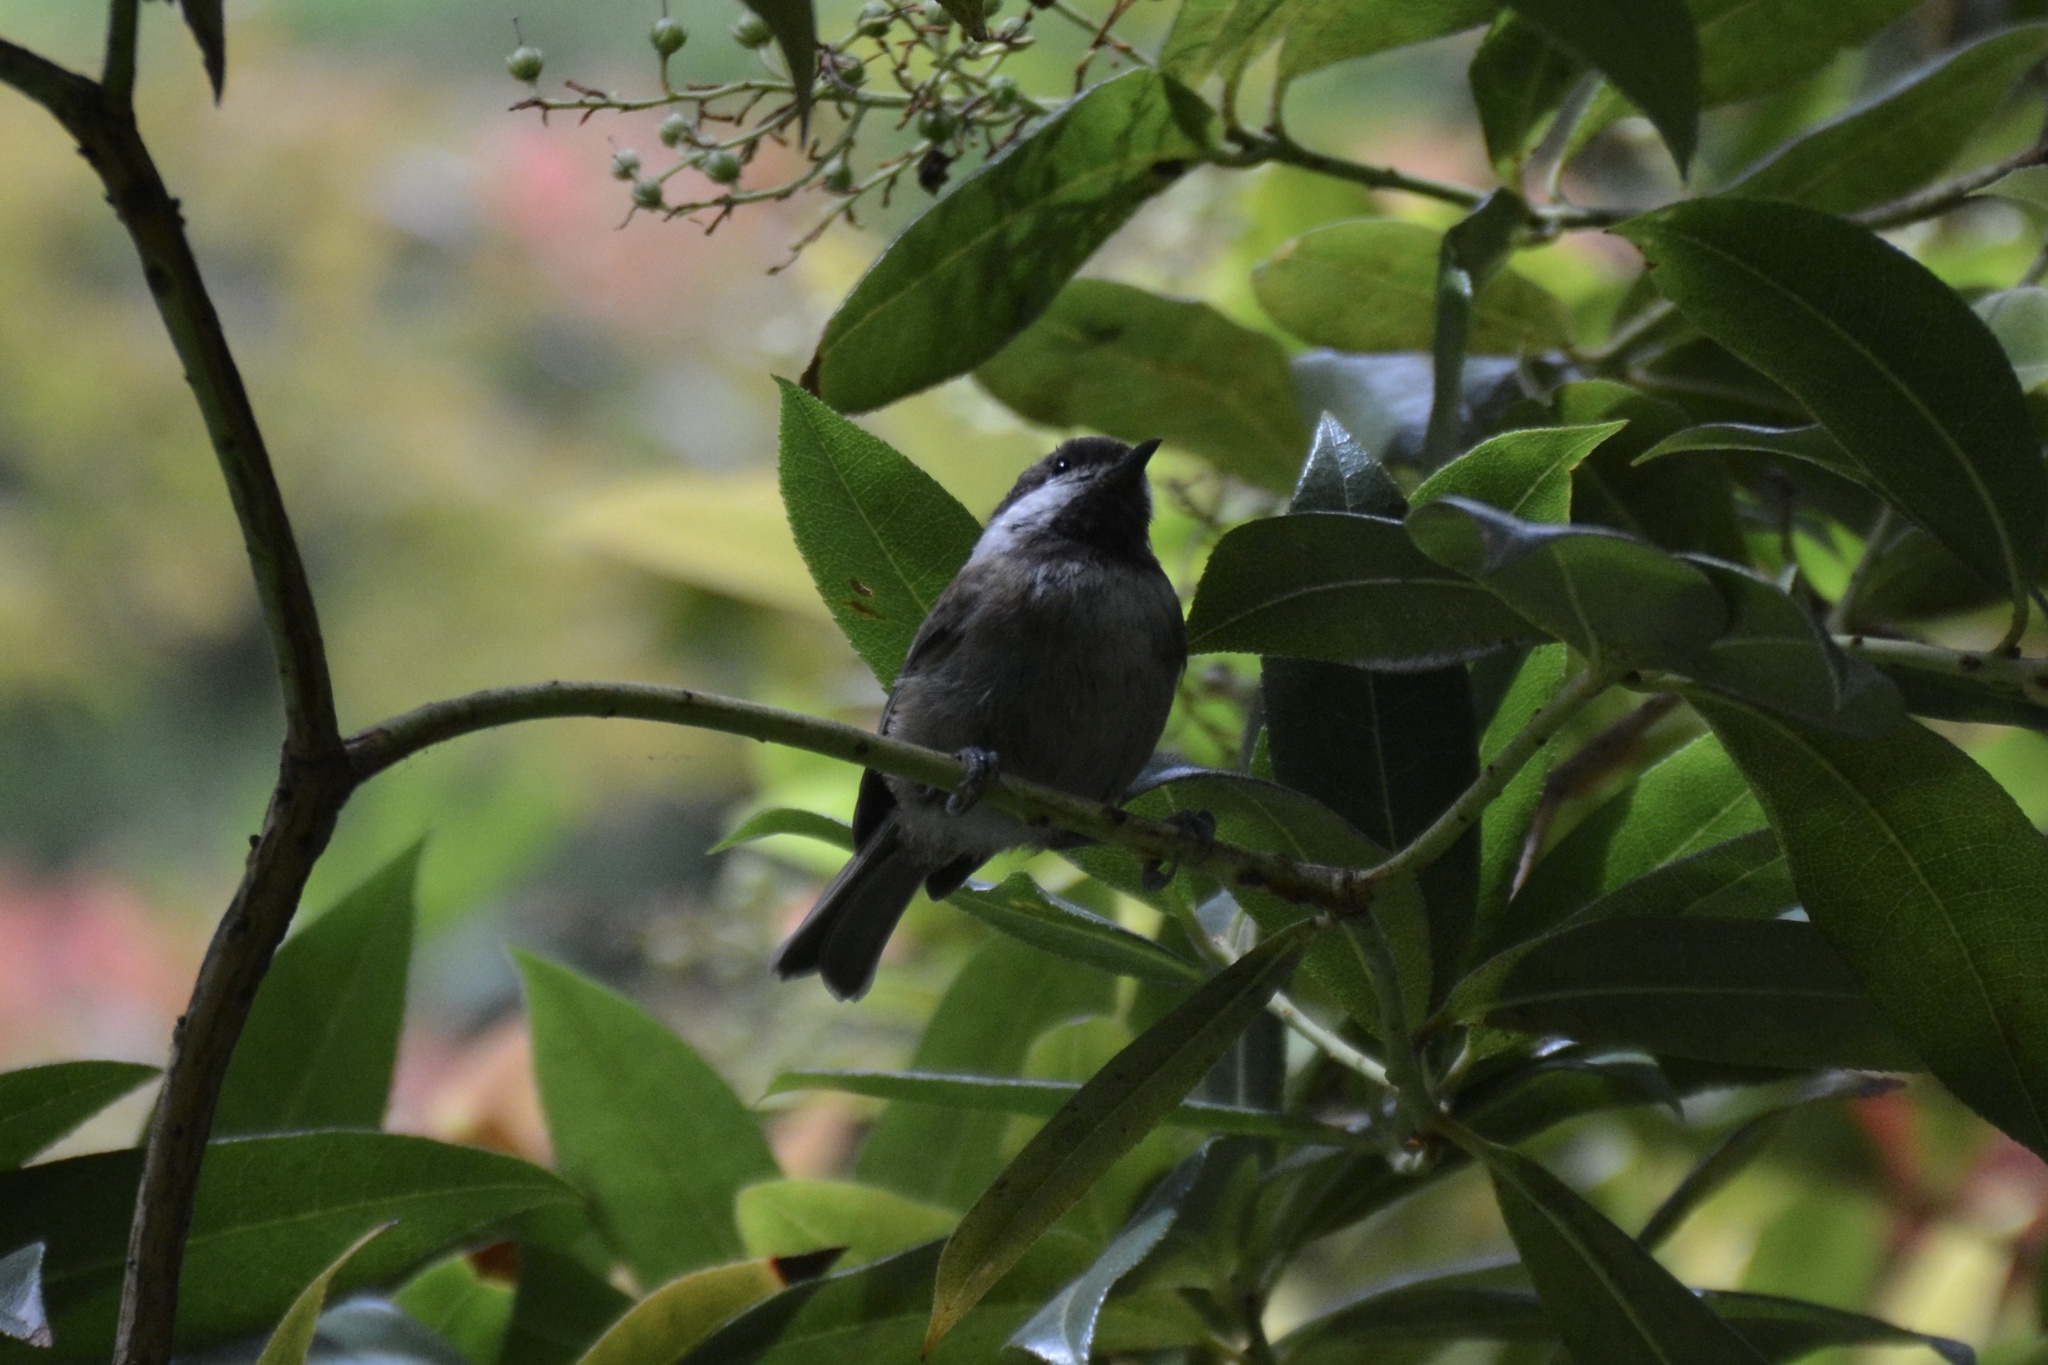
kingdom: Animalia
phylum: Chordata
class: Aves
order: Passeriformes
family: Paridae
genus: Poecile
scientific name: Poecile rufescens
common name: Chestnut-backed chickadee
